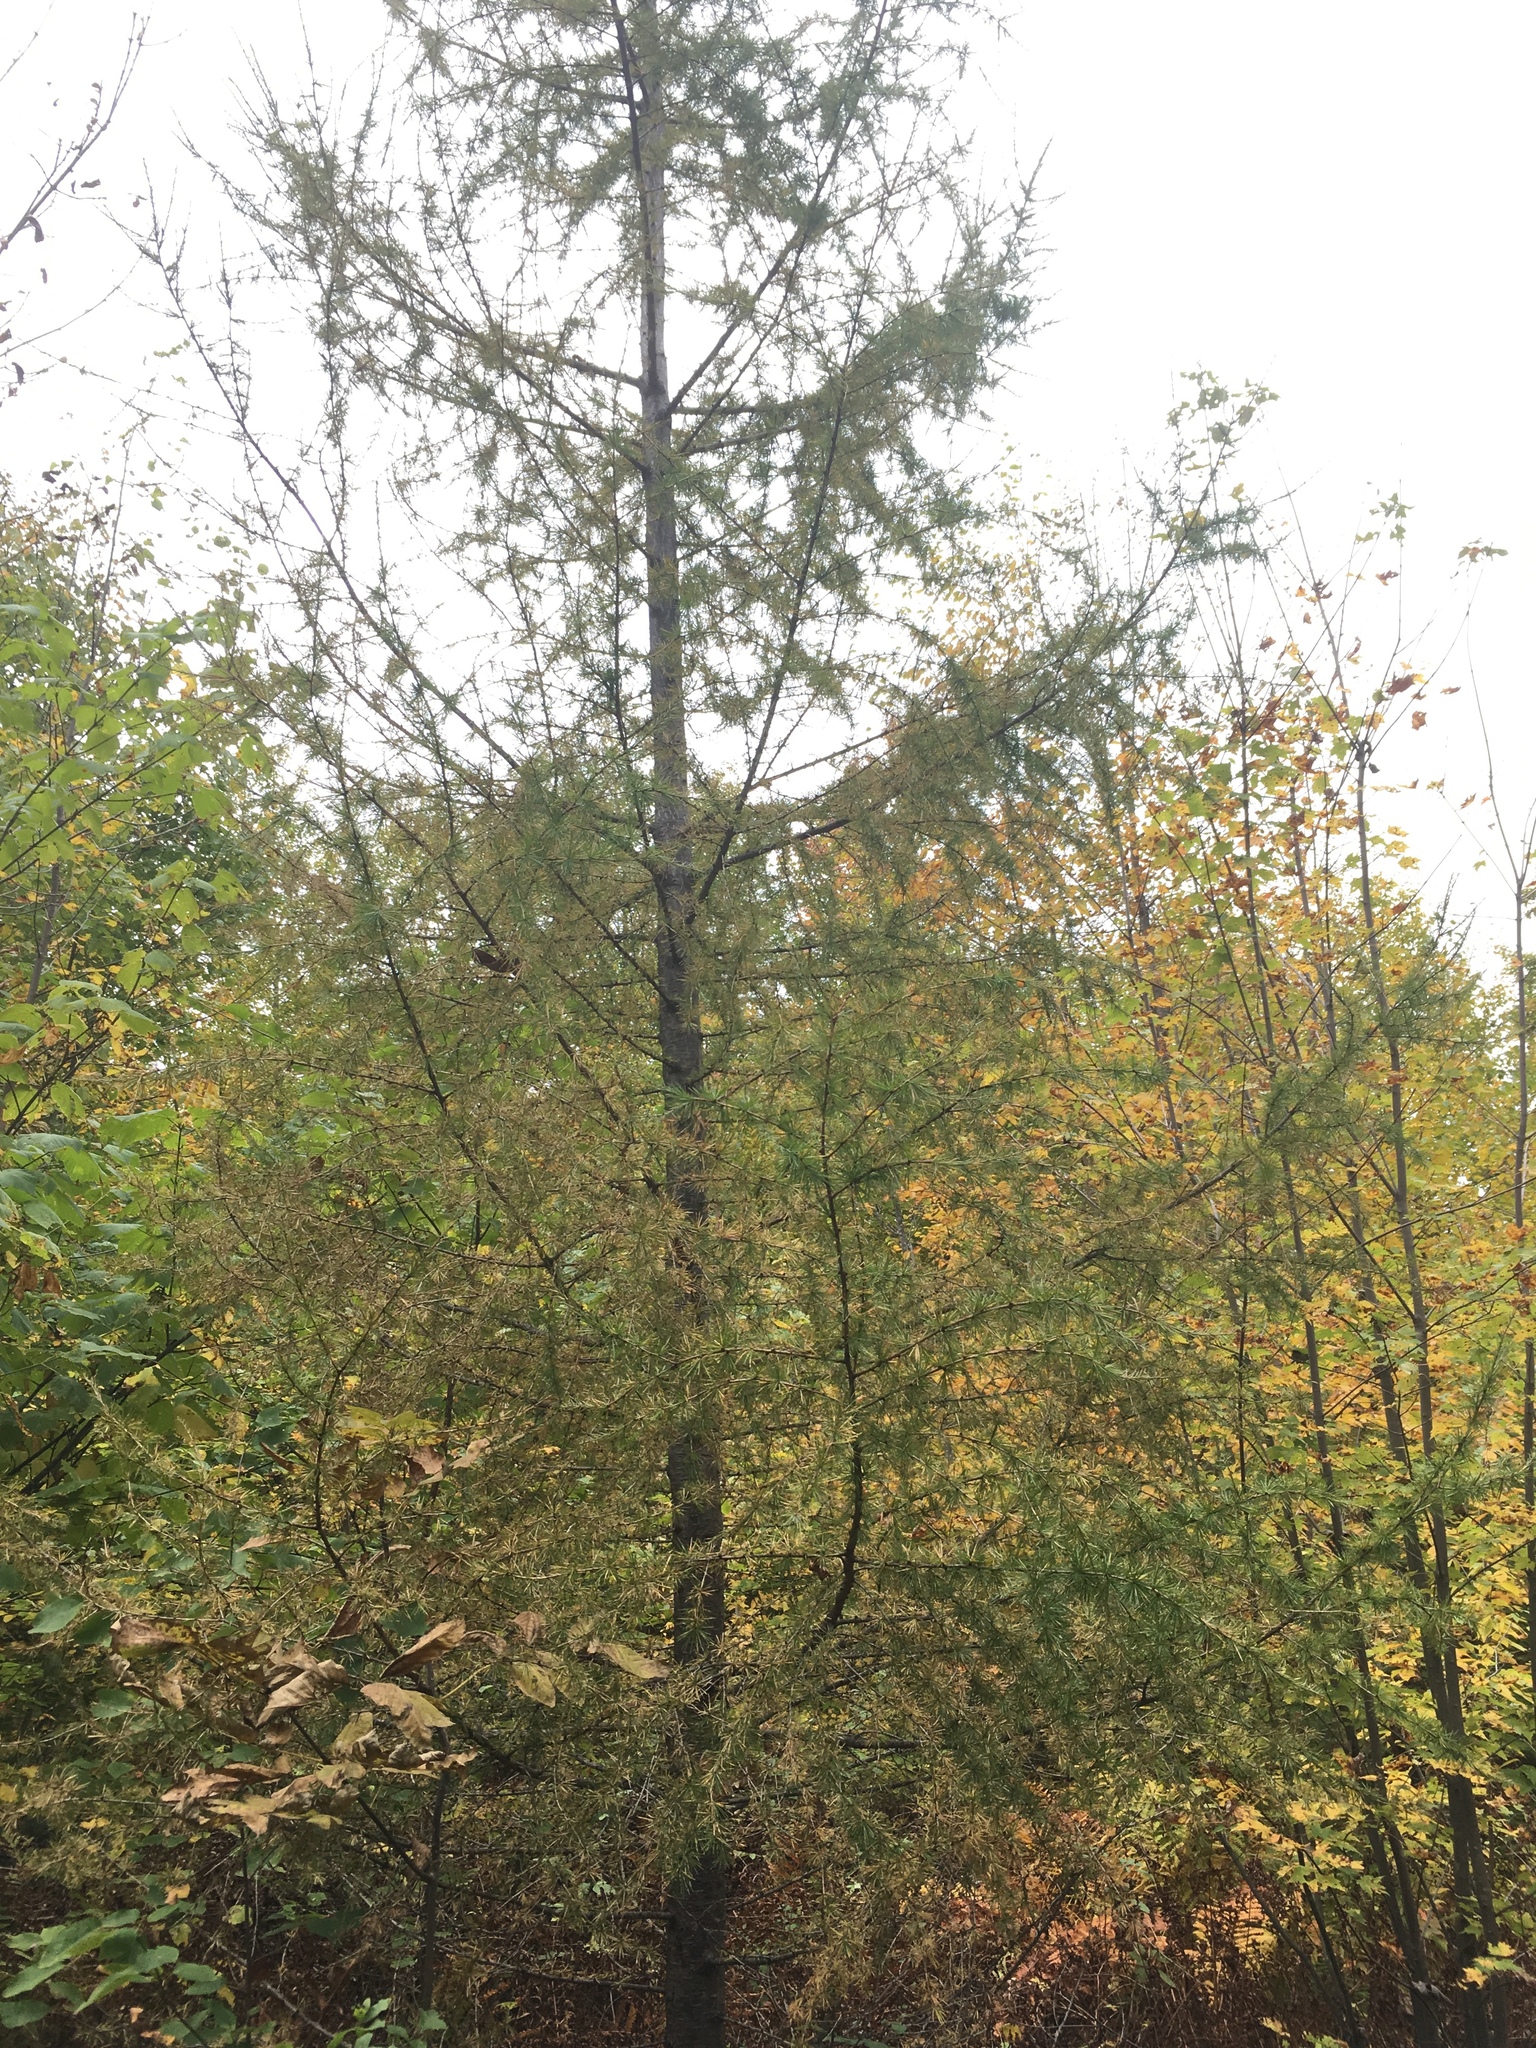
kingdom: Plantae
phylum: Tracheophyta
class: Pinopsida
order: Pinales
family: Pinaceae
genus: Larix
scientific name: Larix laricina
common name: American larch
